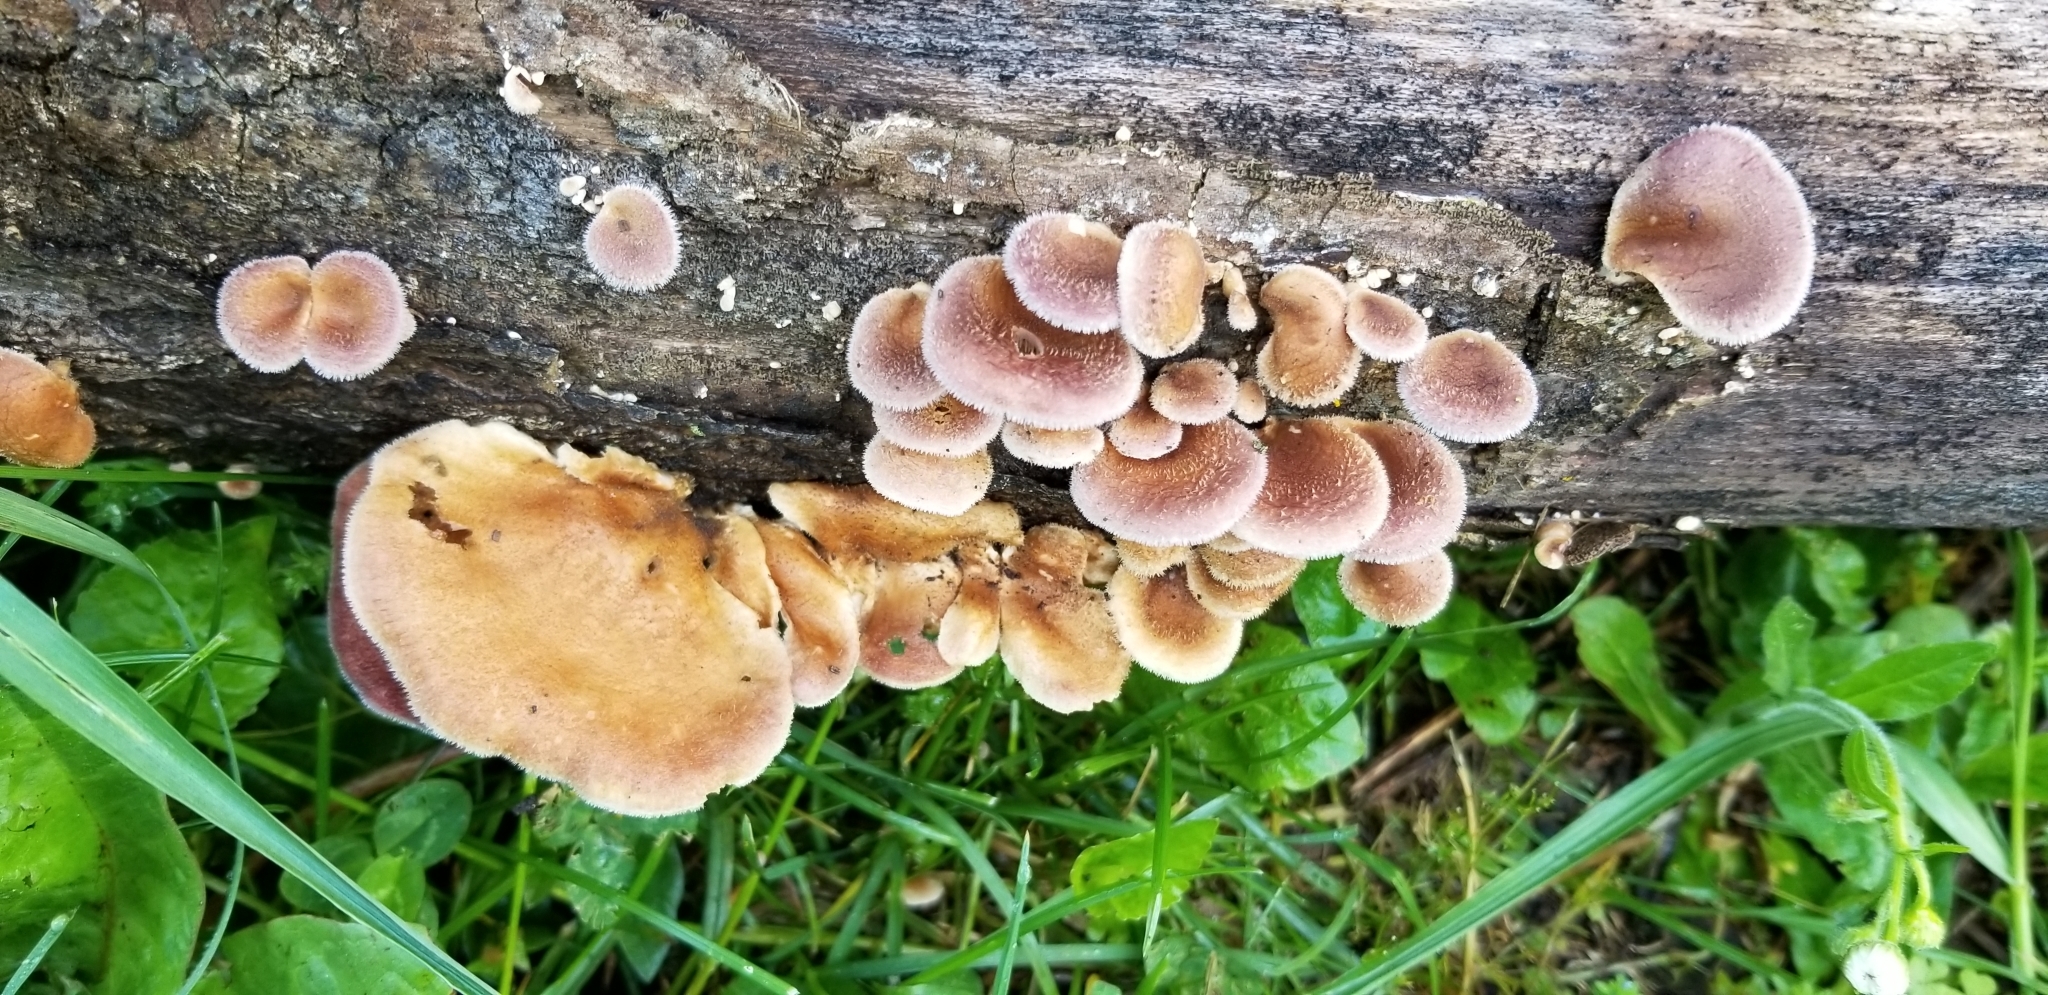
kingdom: Fungi
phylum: Basidiomycota
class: Agaricomycetes
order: Polyporales
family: Panaceae
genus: Panus
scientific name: Panus neostrigosus
